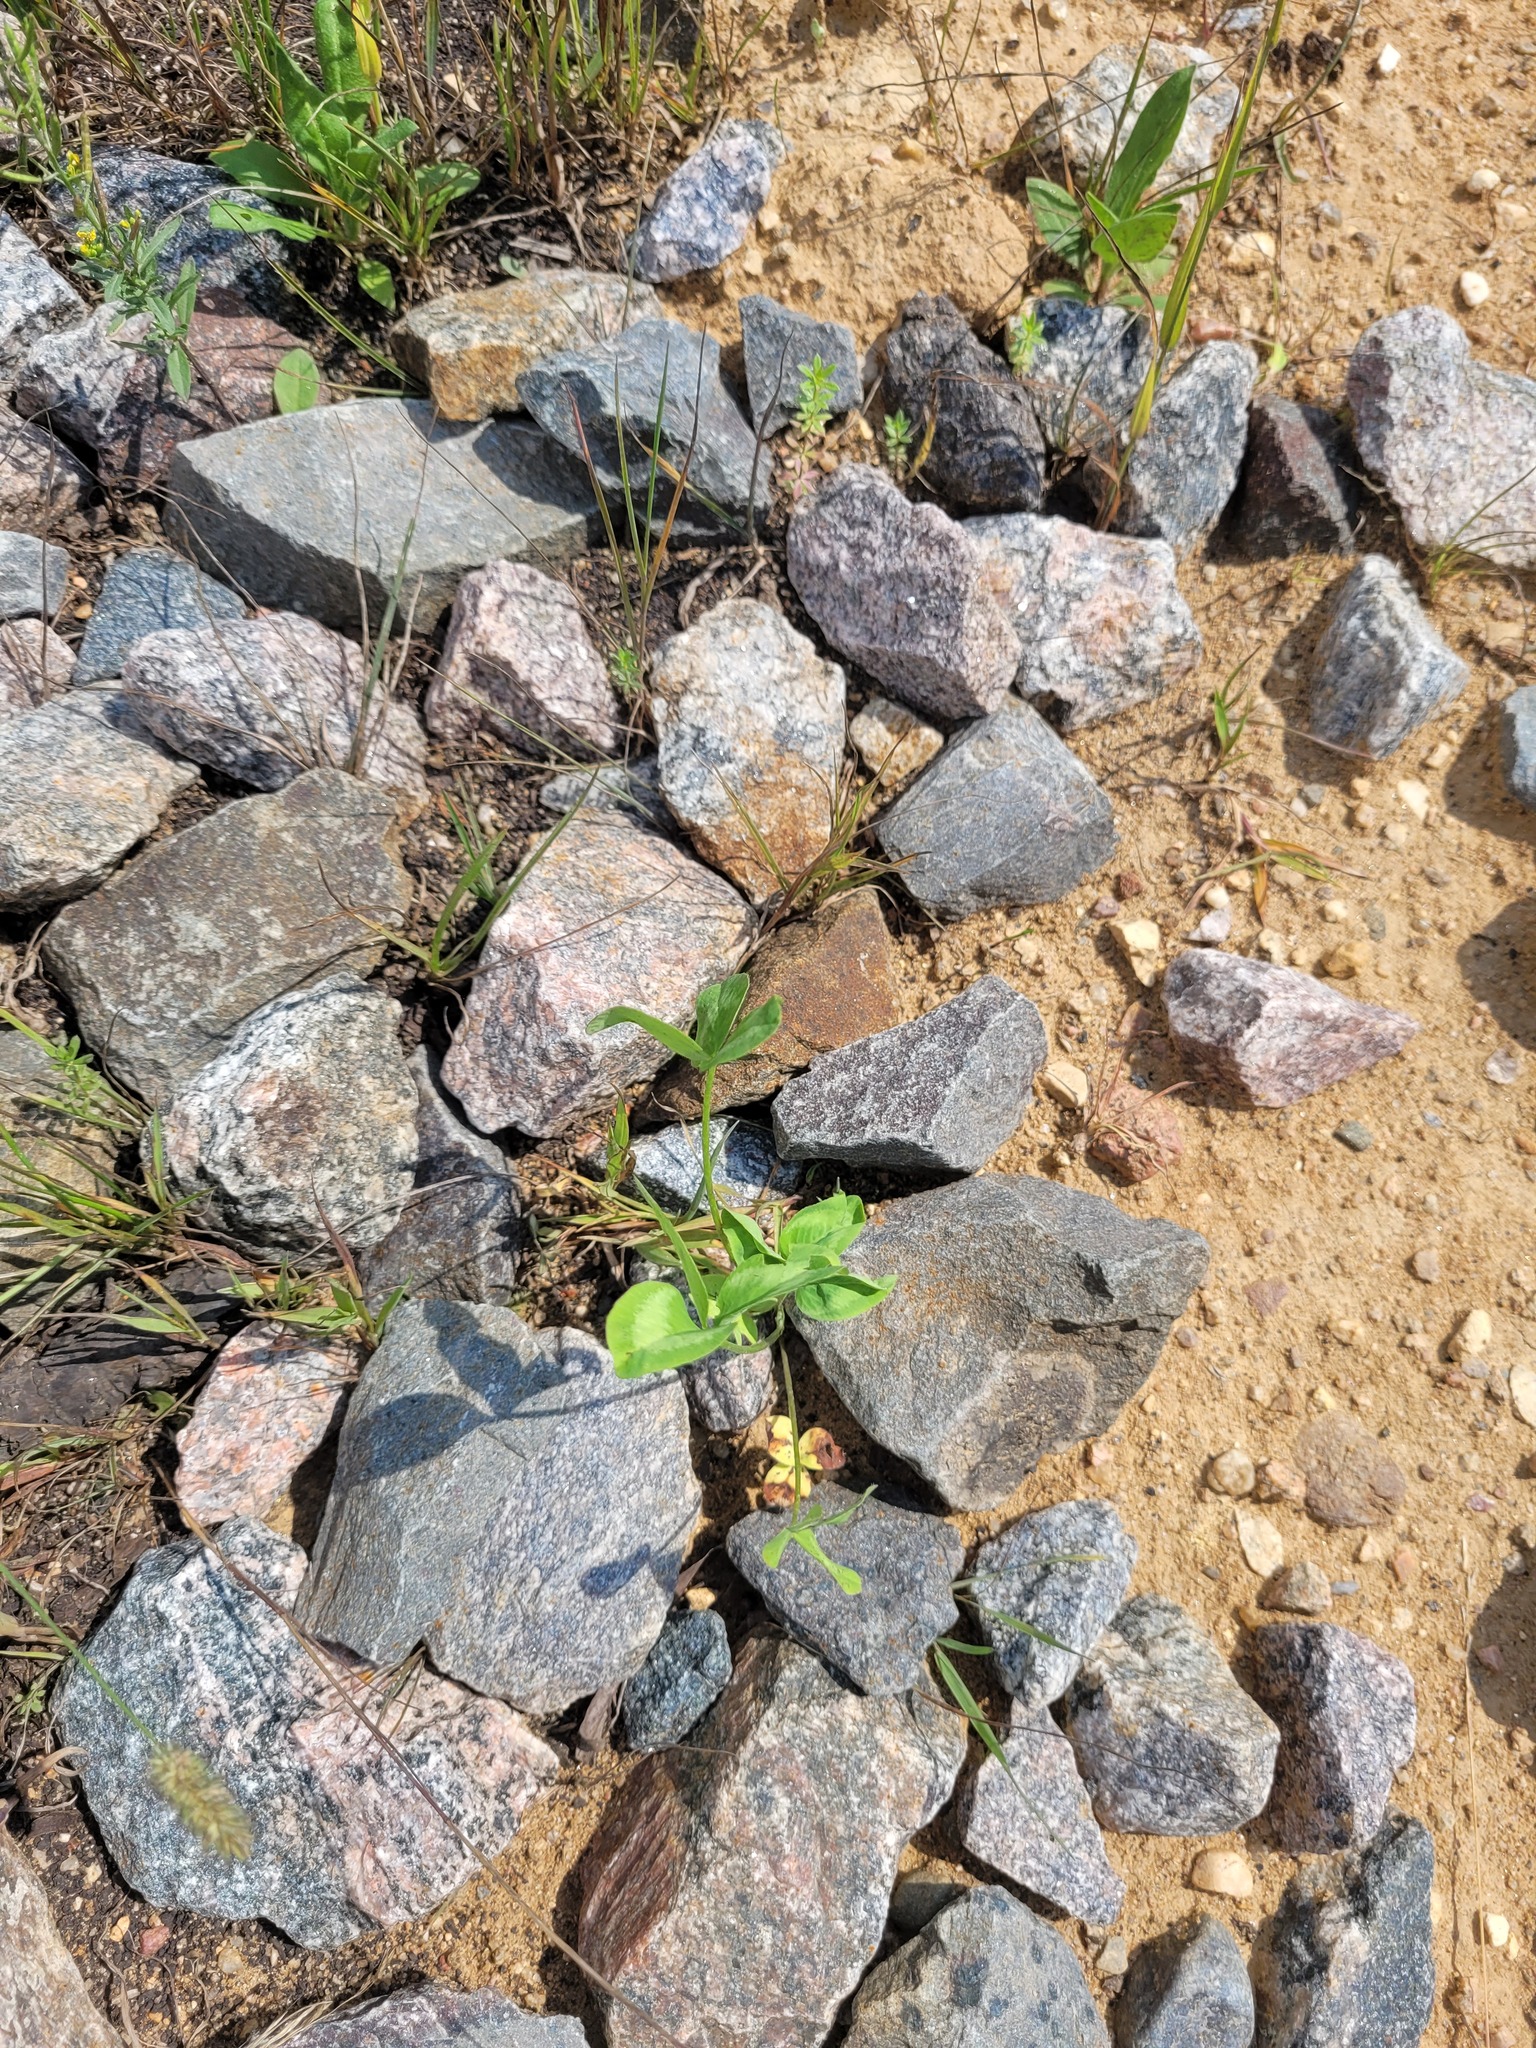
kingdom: Plantae
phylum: Tracheophyta
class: Magnoliopsida
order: Fabales
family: Fabaceae
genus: Trifolium
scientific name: Trifolium pratense
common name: Red clover
